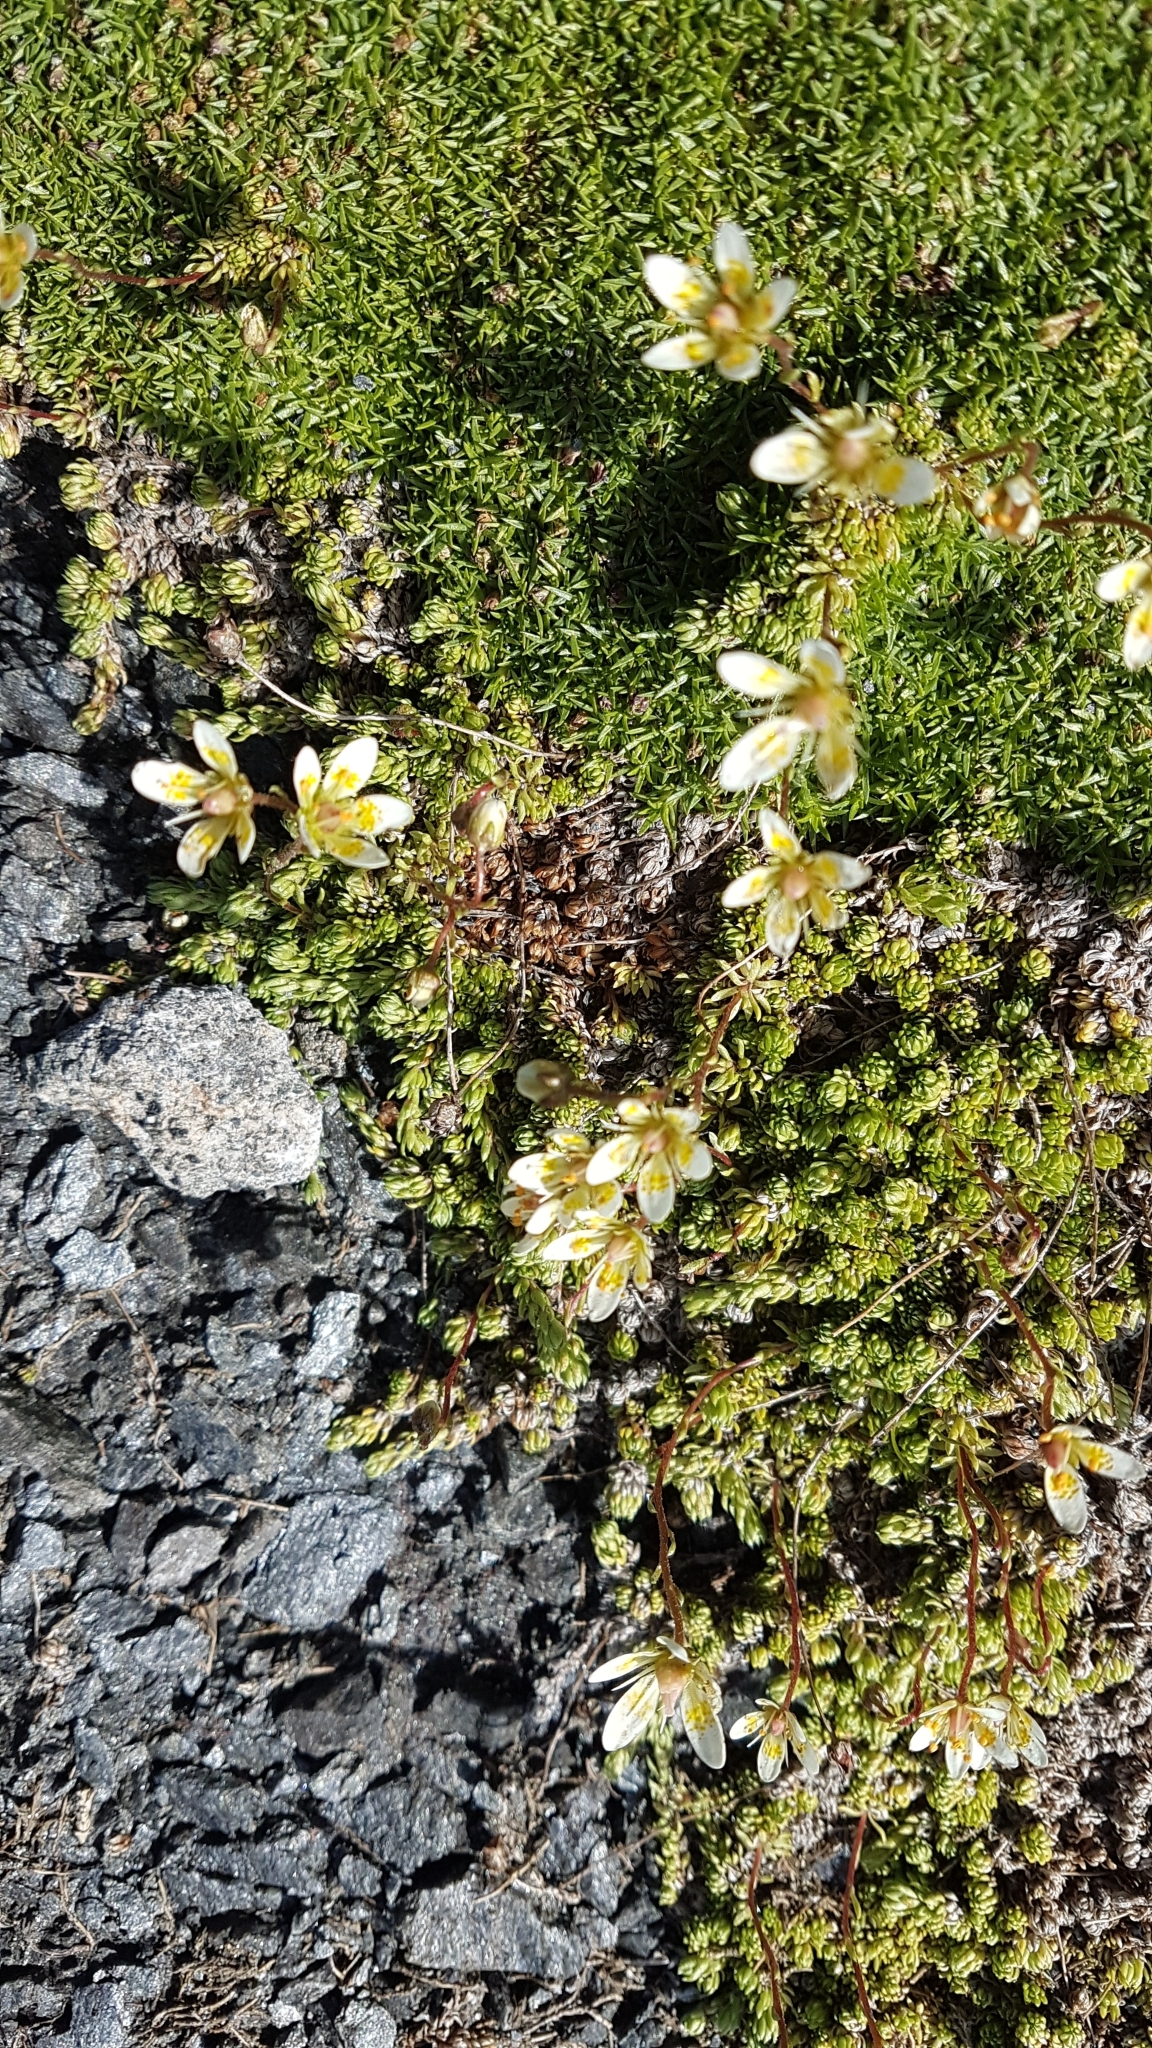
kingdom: Plantae
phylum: Tracheophyta
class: Magnoliopsida
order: Saxifragales
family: Saxifragaceae
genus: Saxifraga
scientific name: Saxifraga bryoides
